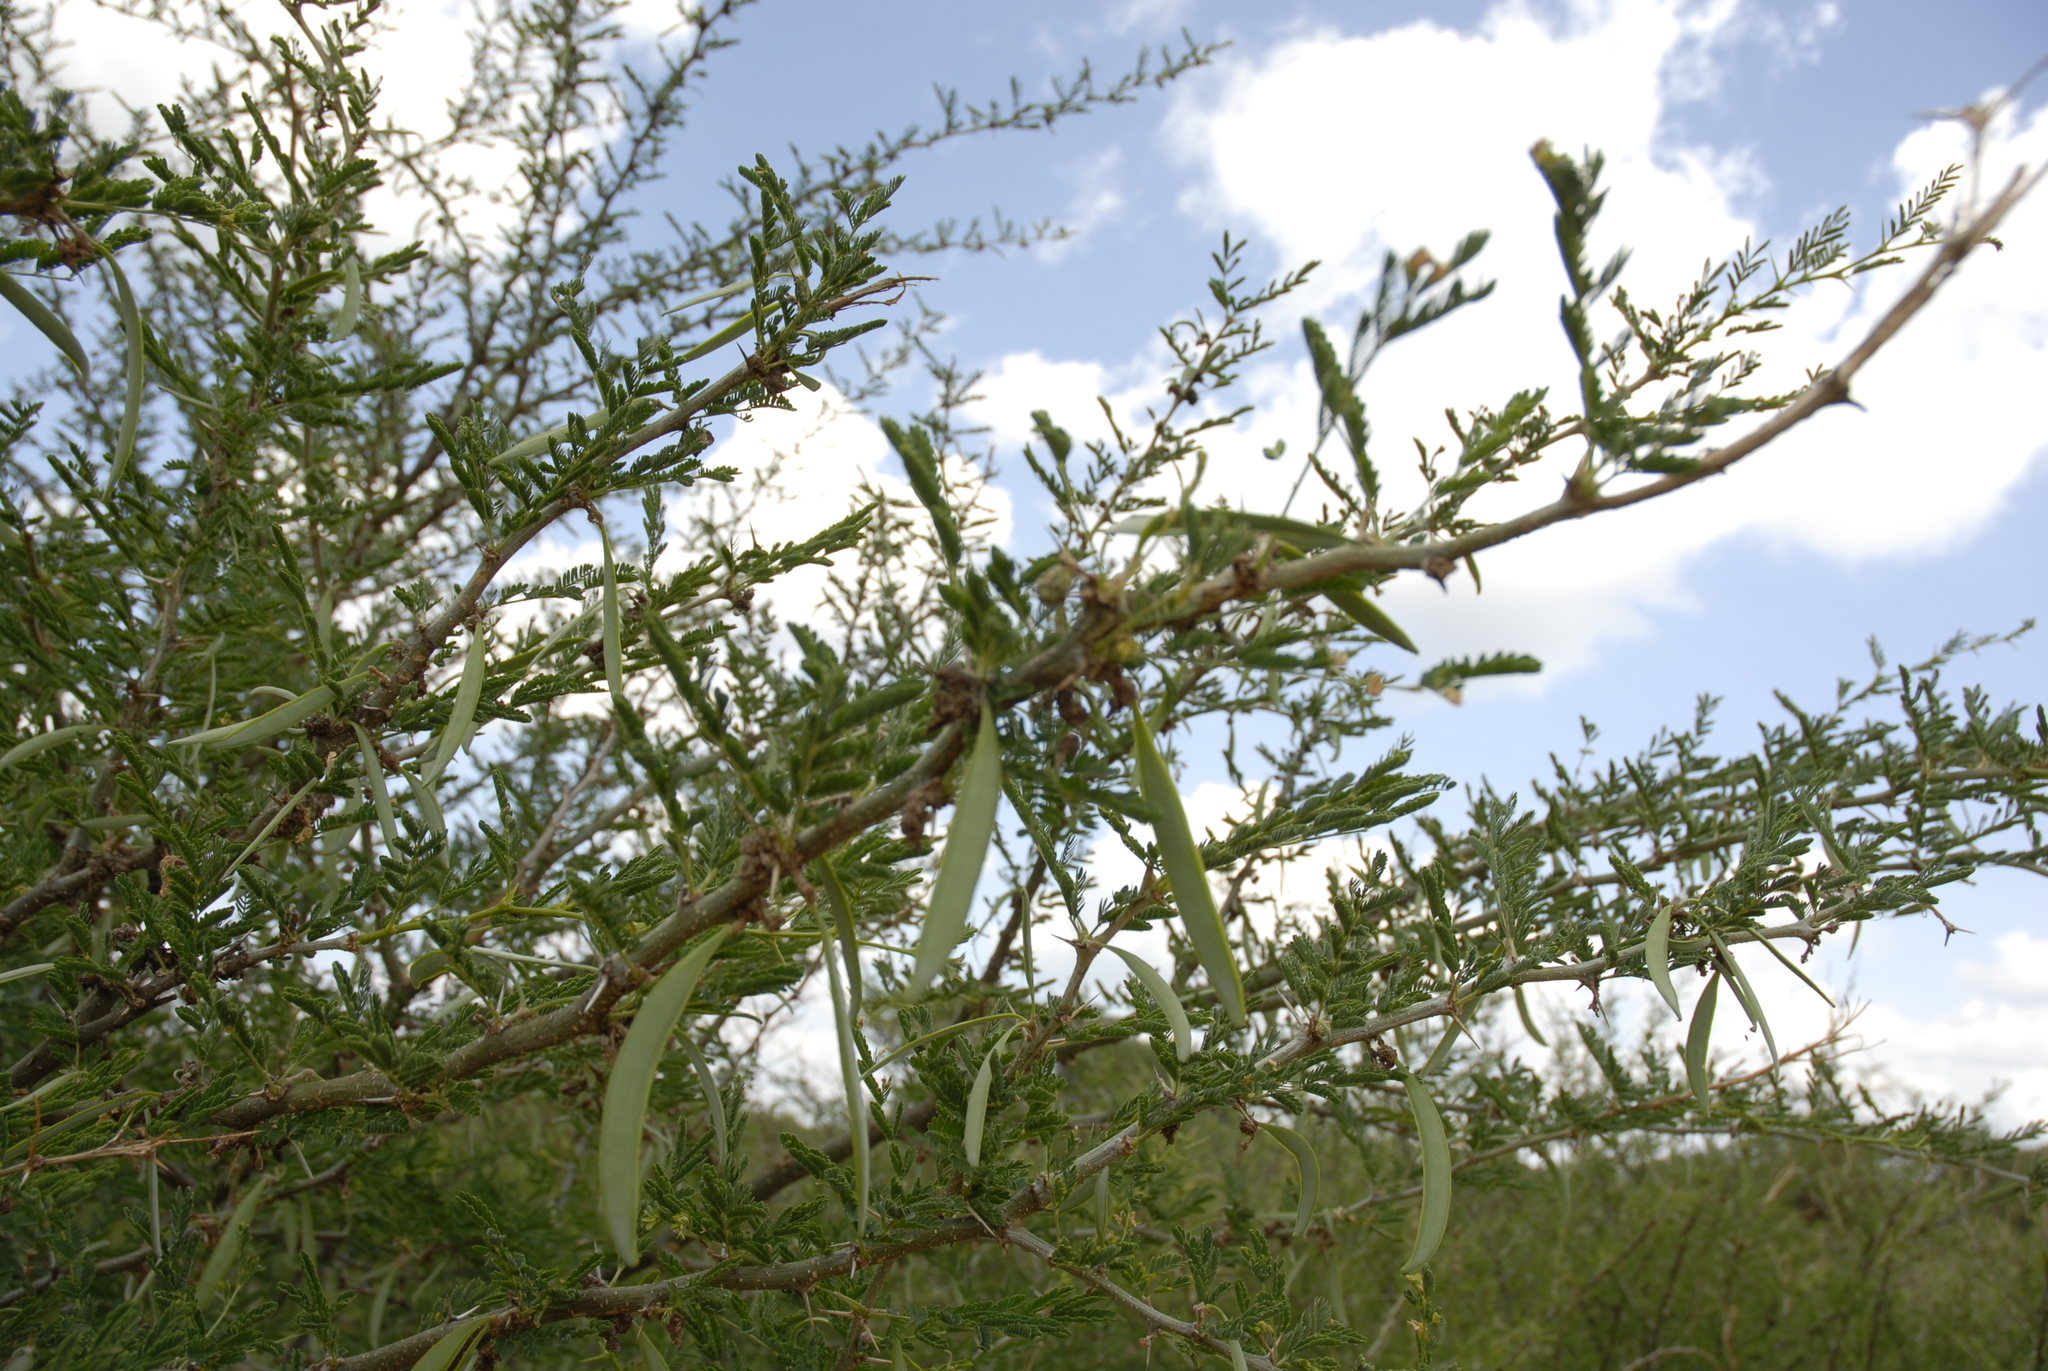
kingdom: Plantae
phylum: Tracheophyta
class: Magnoliopsida
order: Fabales
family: Fabaceae
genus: Vachellia
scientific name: Vachellia seyal
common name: Thirtythorn
